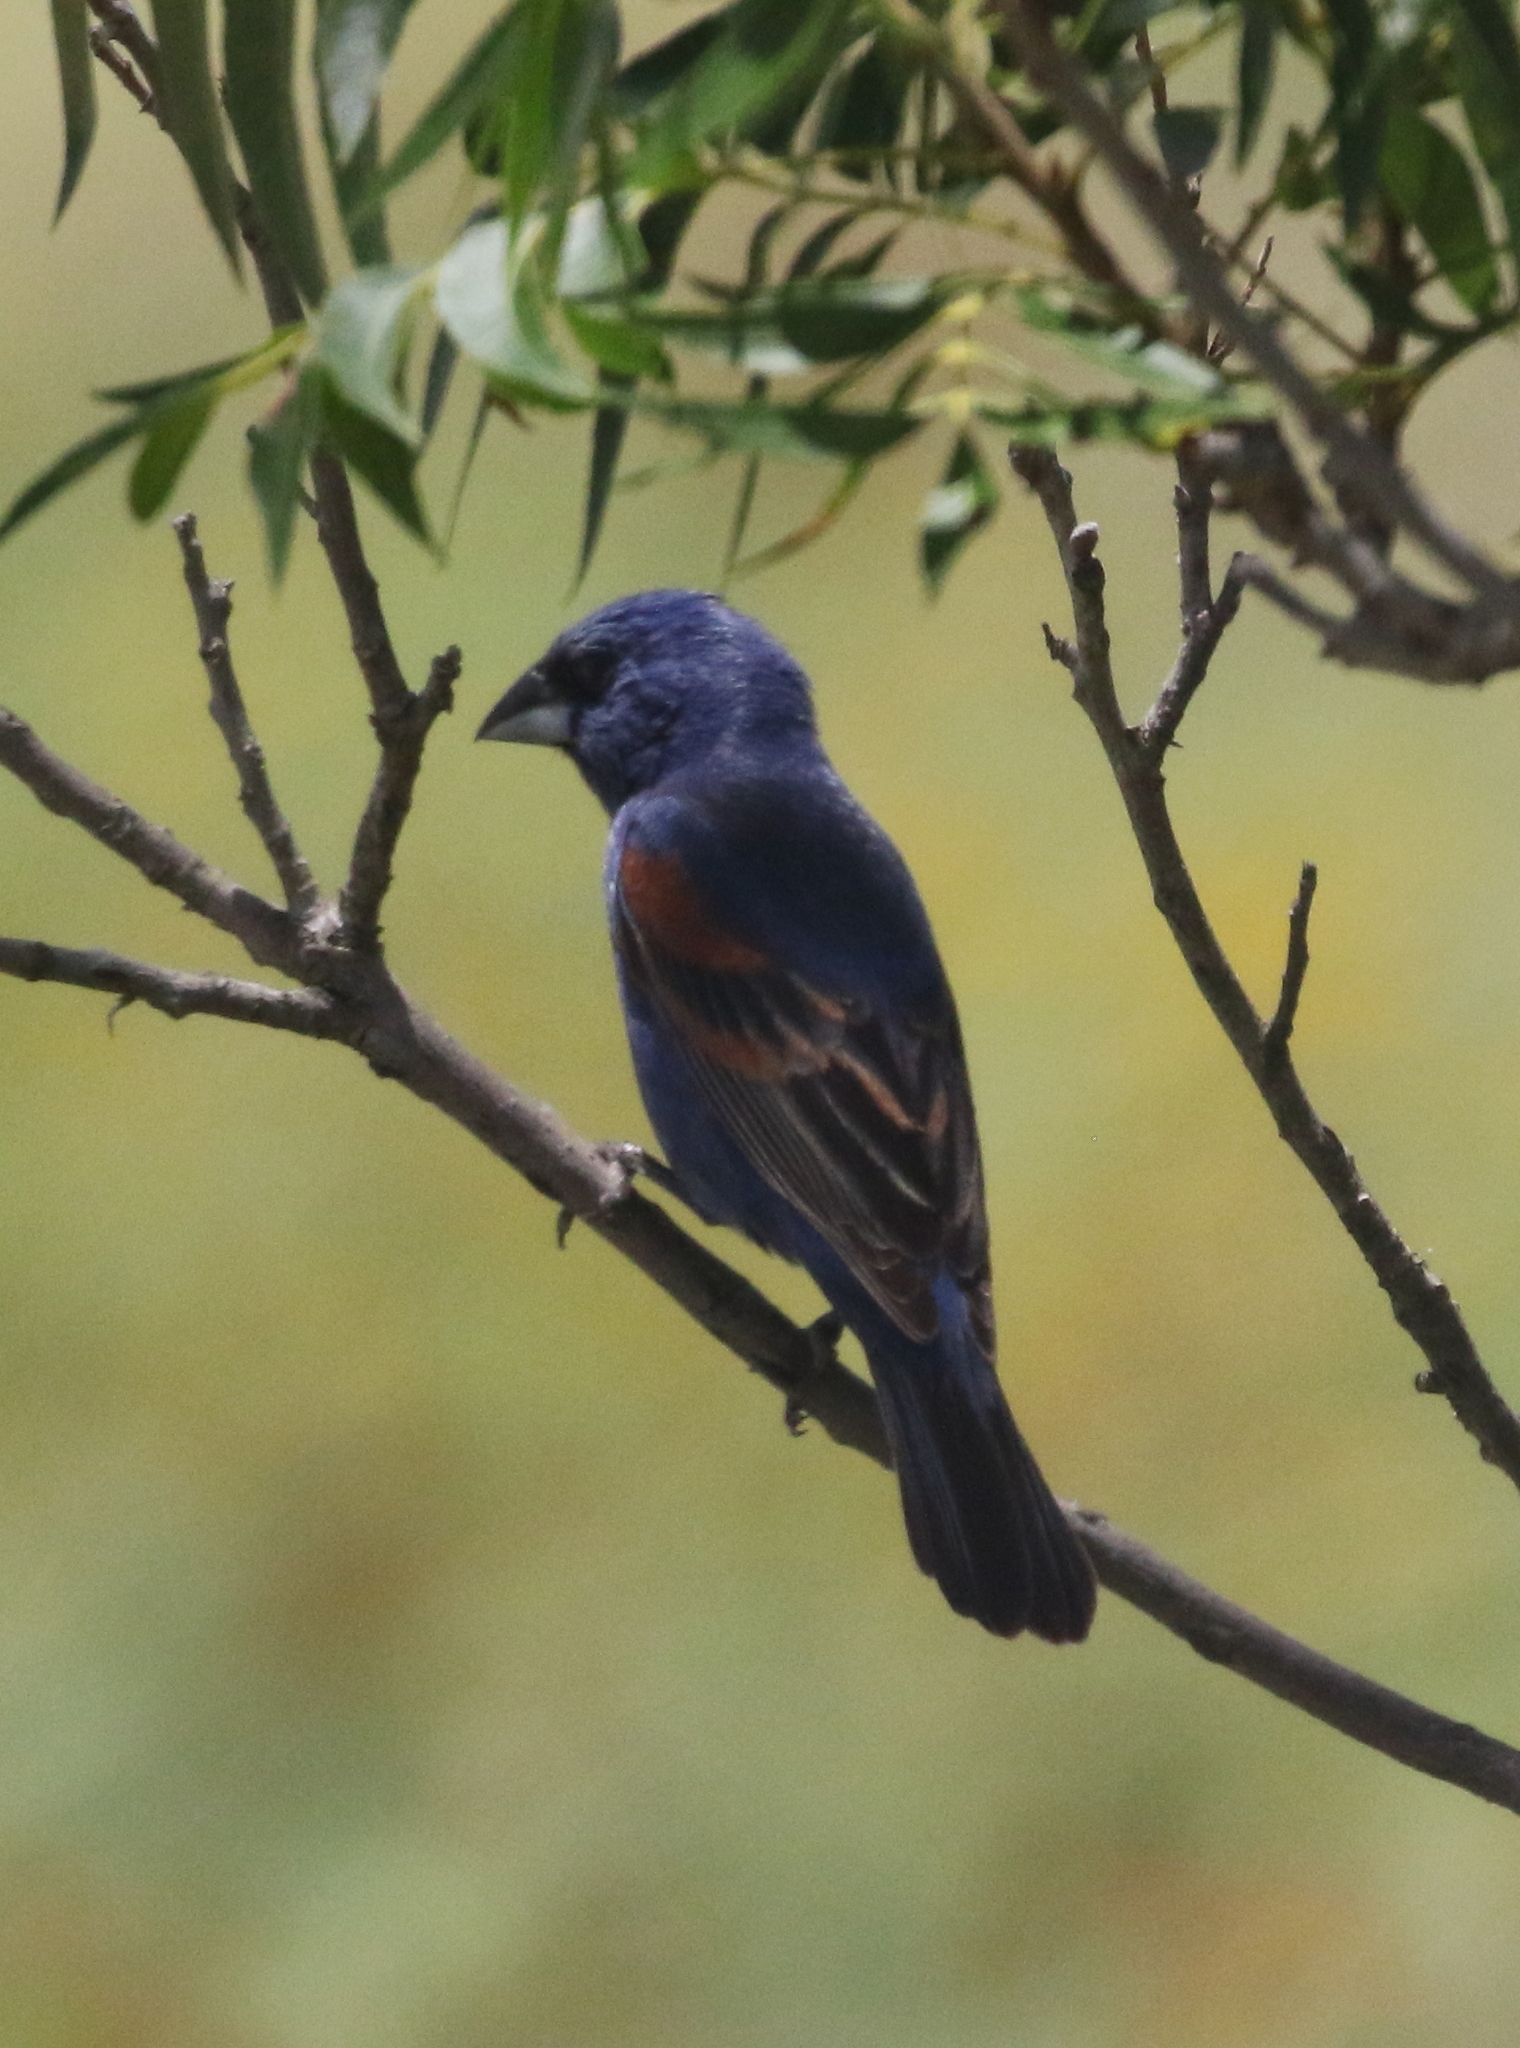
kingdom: Animalia
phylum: Chordata
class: Aves
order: Passeriformes
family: Cardinalidae
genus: Passerina
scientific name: Passerina caerulea
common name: Blue grosbeak
